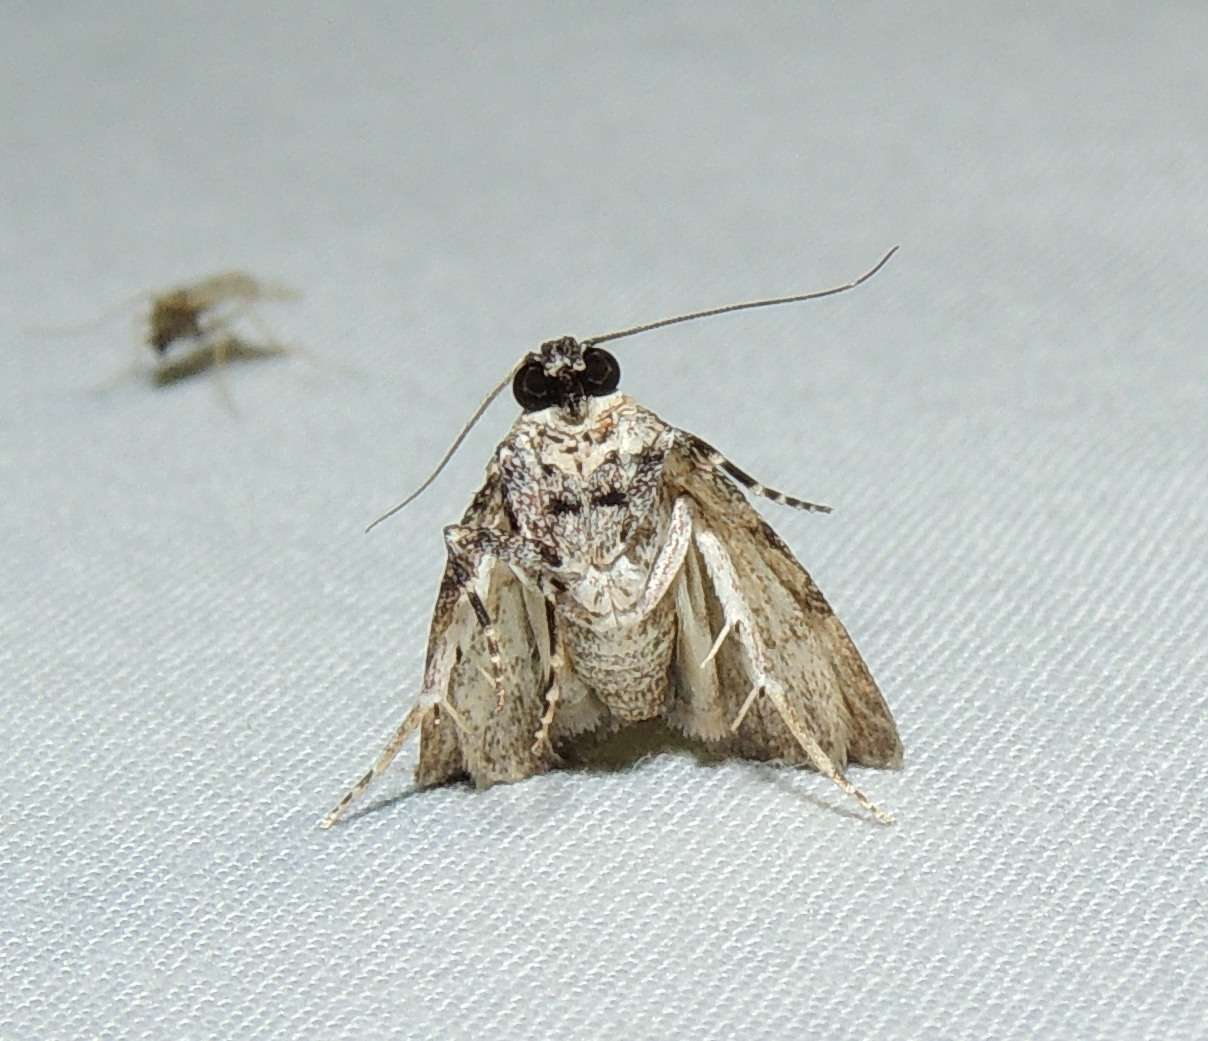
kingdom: Animalia
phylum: Arthropoda
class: Insecta
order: Lepidoptera
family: Pyralidae
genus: Spectrotrota
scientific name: Spectrotrota fimbrialis
